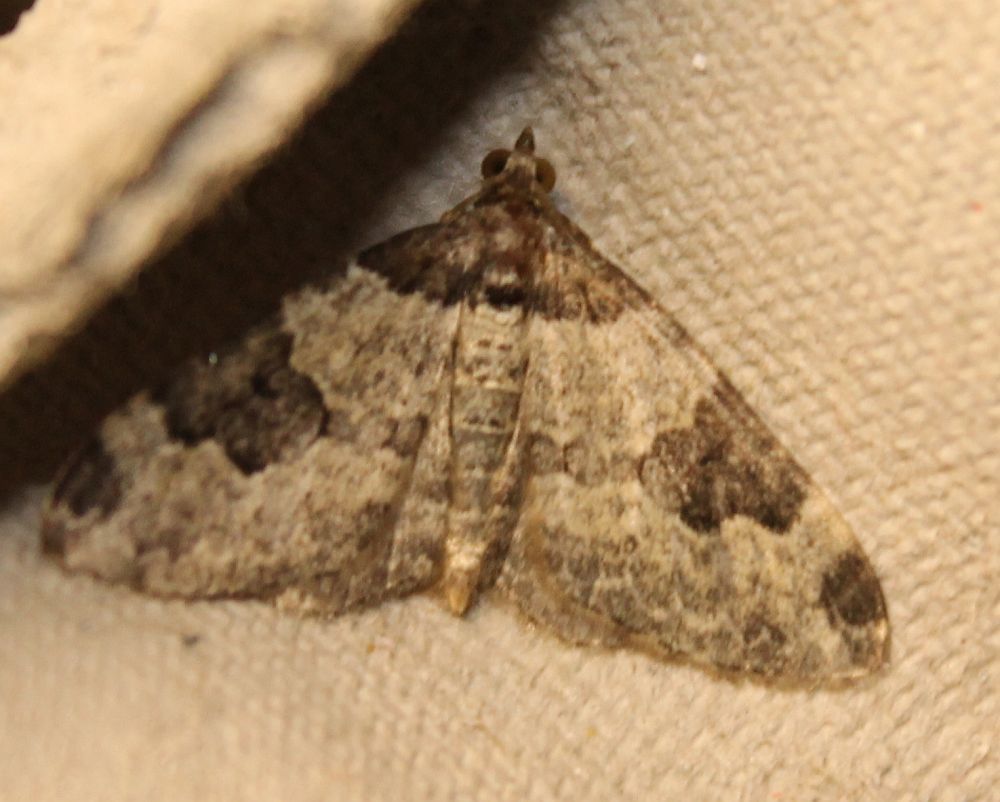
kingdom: Animalia
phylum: Arthropoda
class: Insecta
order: Lepidoptera
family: Geometridae
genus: Xanthorhoe
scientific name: Xanthorhoe fluctuata
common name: Garden carpet
